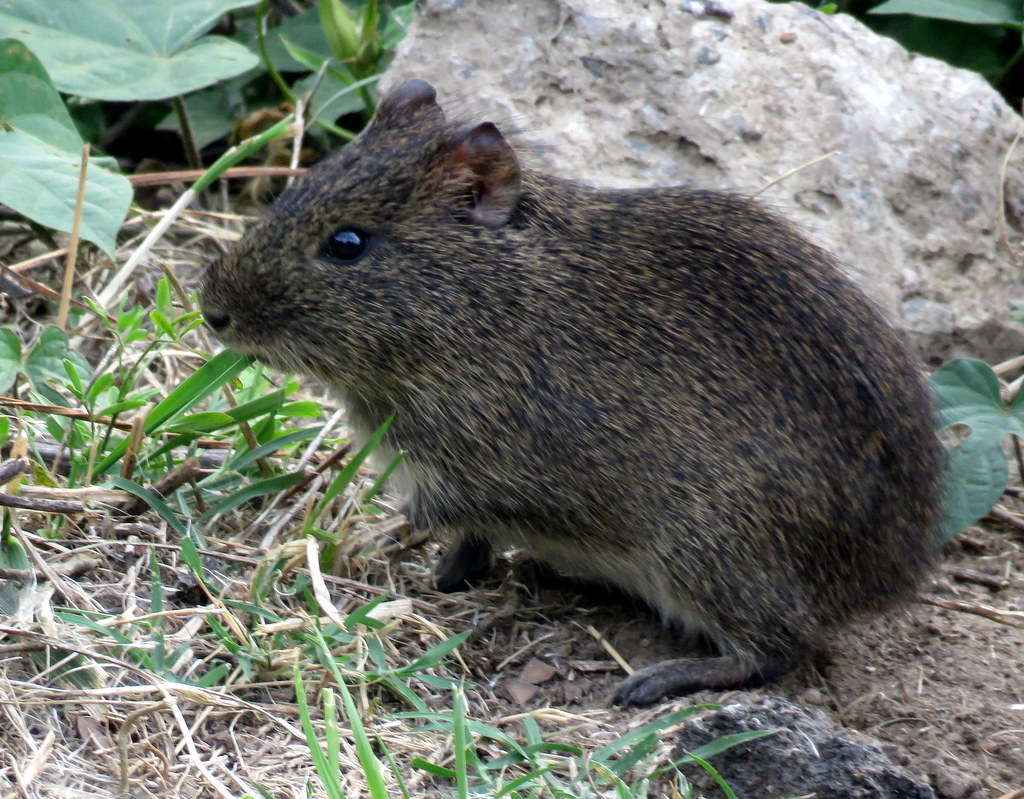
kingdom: Animalia
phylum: Chordata
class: Mammalia
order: Rodentia
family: Caviidae
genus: Cavia
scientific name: Cavia aperea
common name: Brazilian guinea pig
